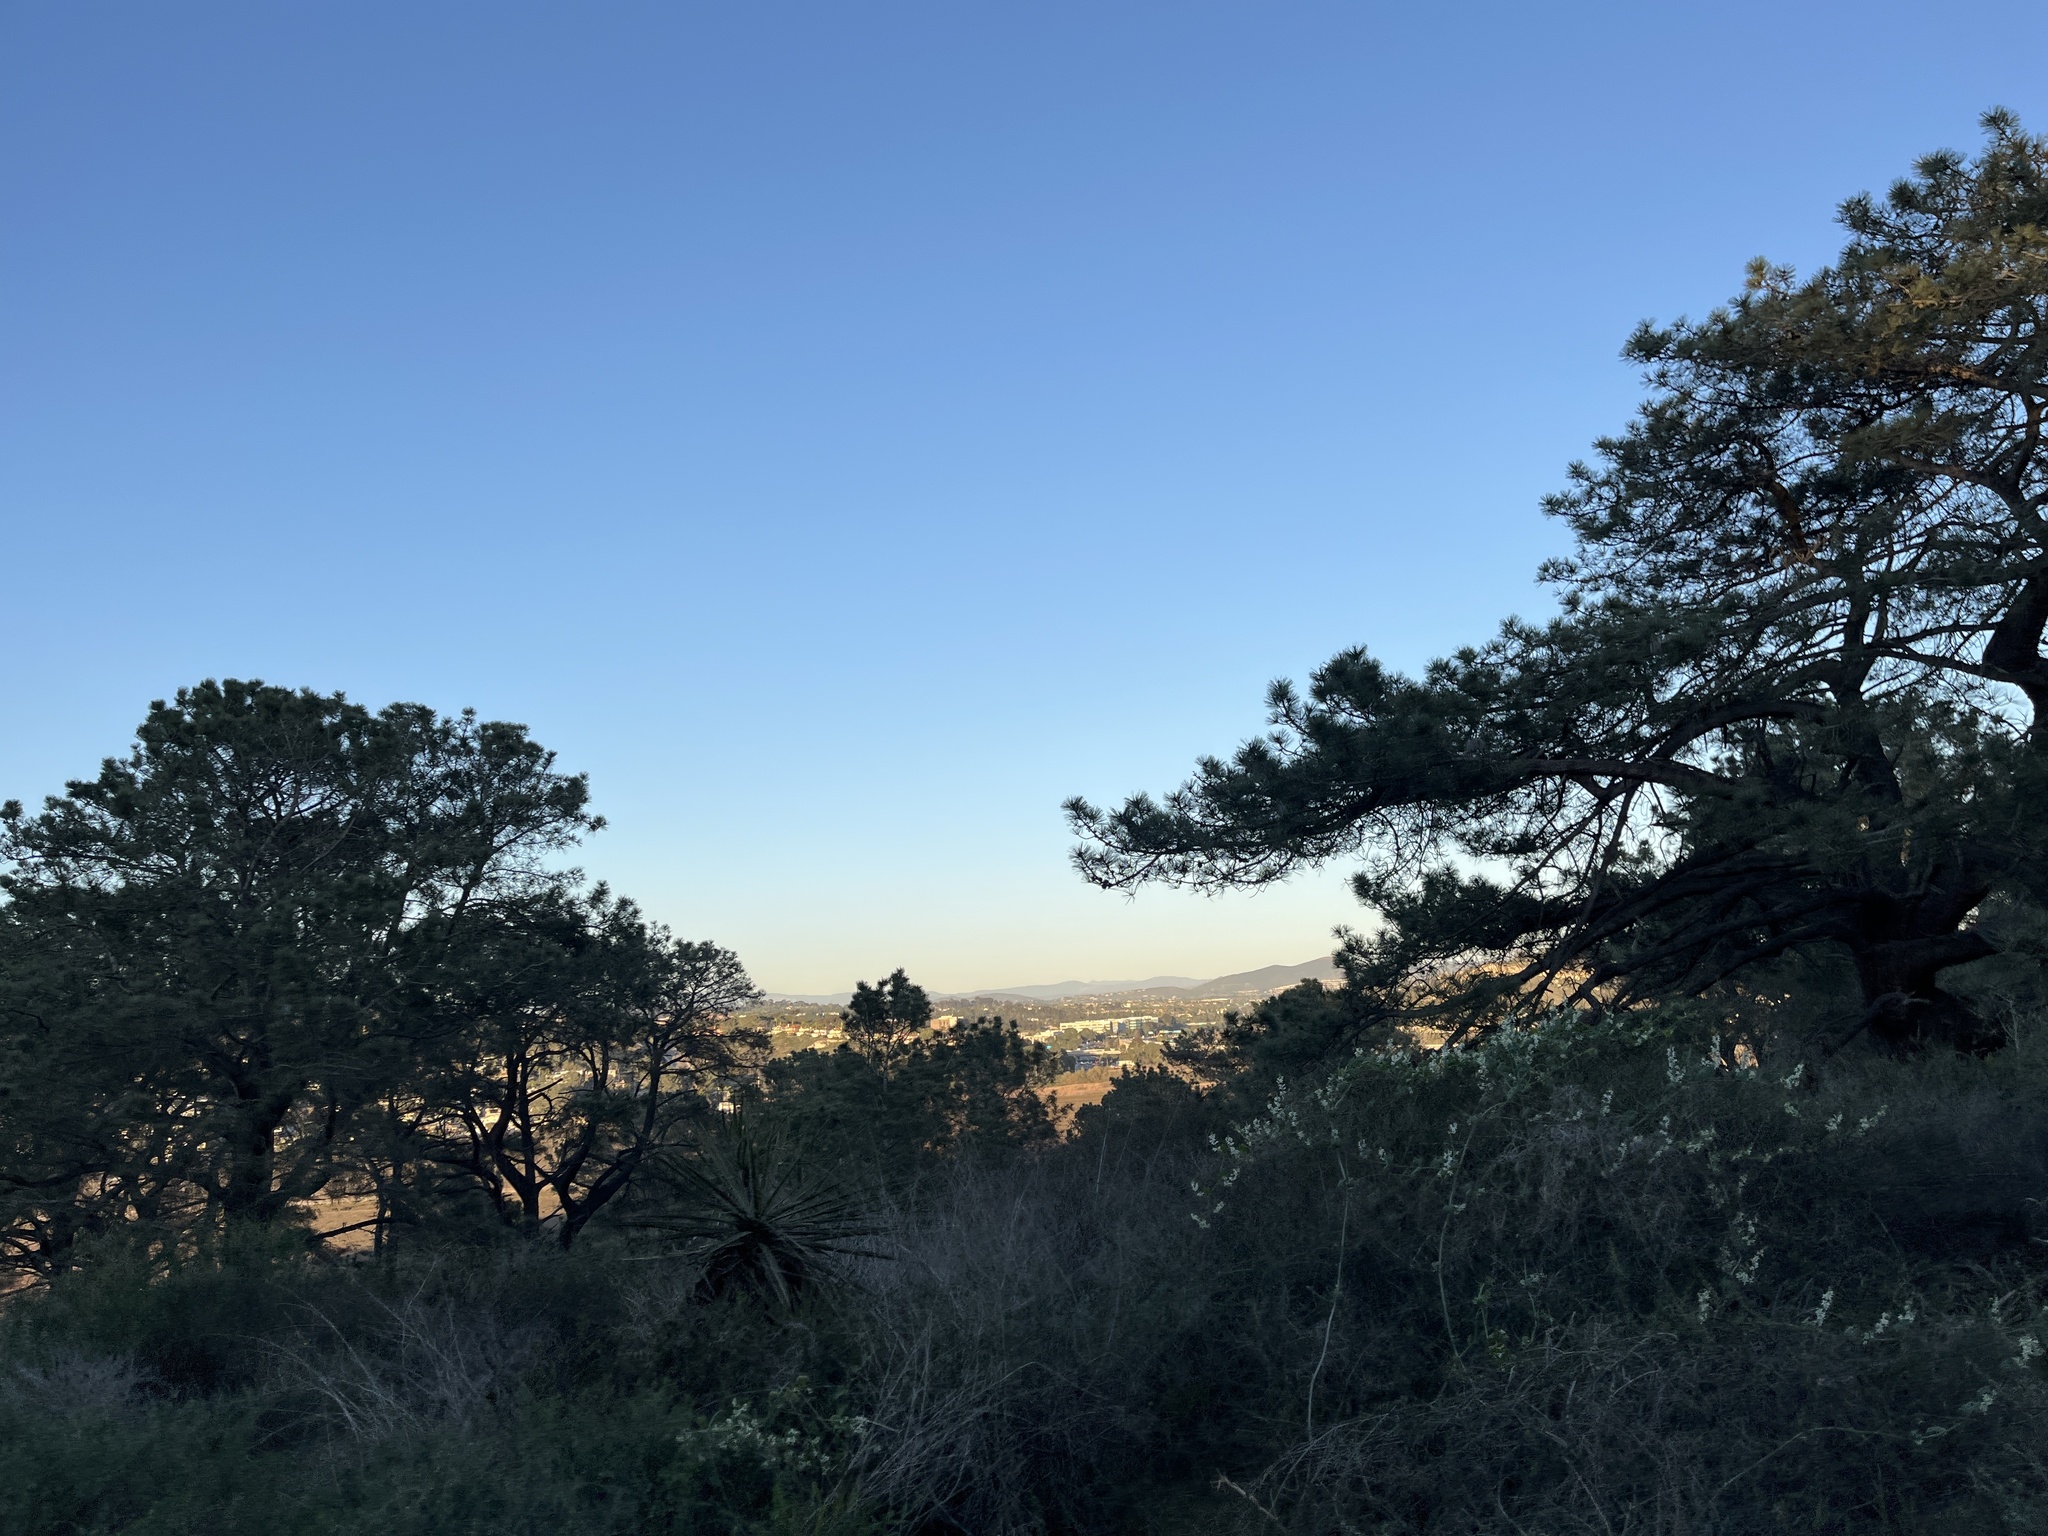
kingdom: Plantae
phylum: Tracheophyta
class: Pinopsida
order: Pinales
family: Pinaceae
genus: Pinus
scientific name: Pinus torreyana
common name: Torrey pine
